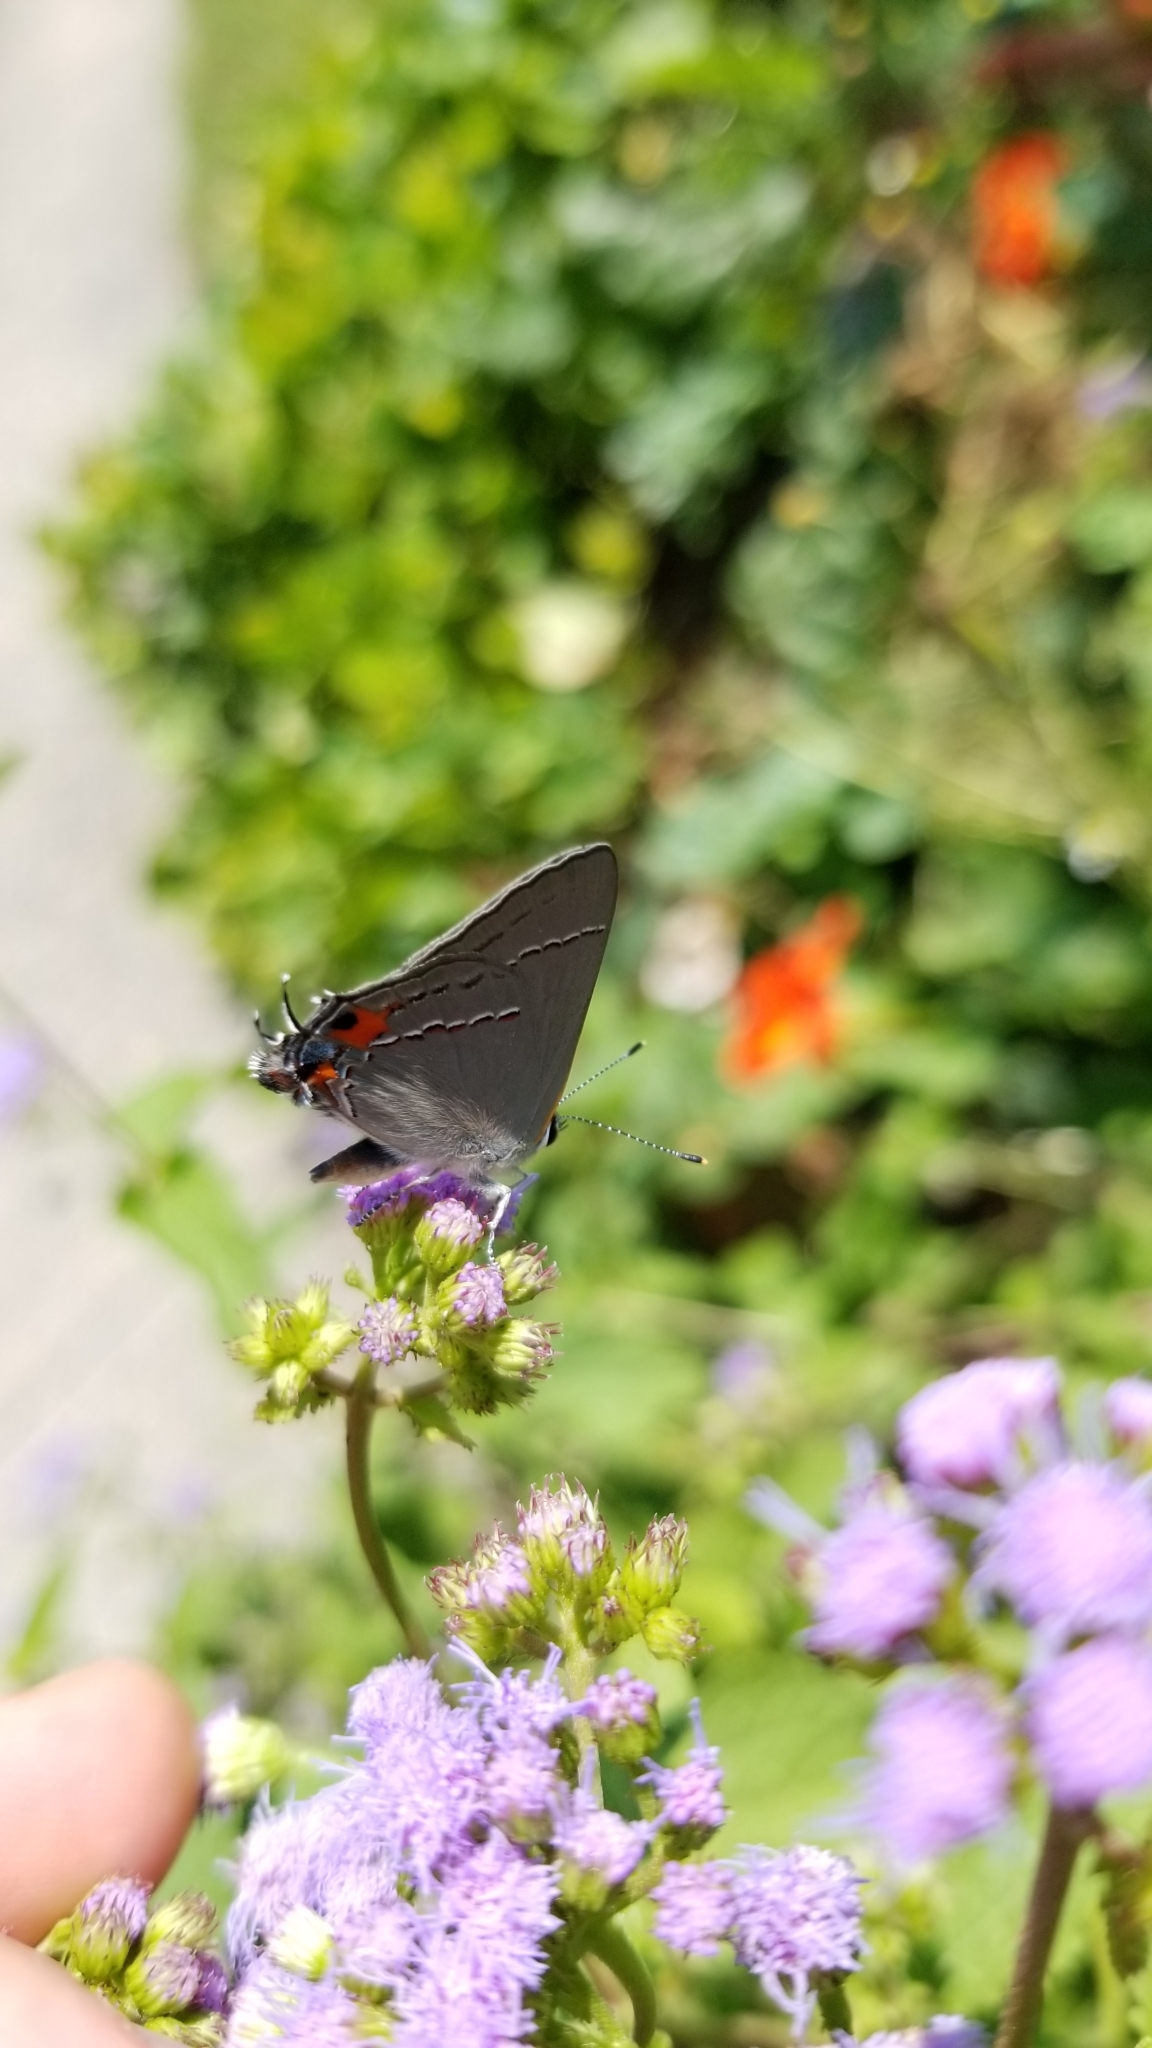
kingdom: Animalia
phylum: Arthropoda
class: Insecta
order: Lepidoptera
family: Lycaenidae
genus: Strymon
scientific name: Strymon melinus
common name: Gray hairstreak
